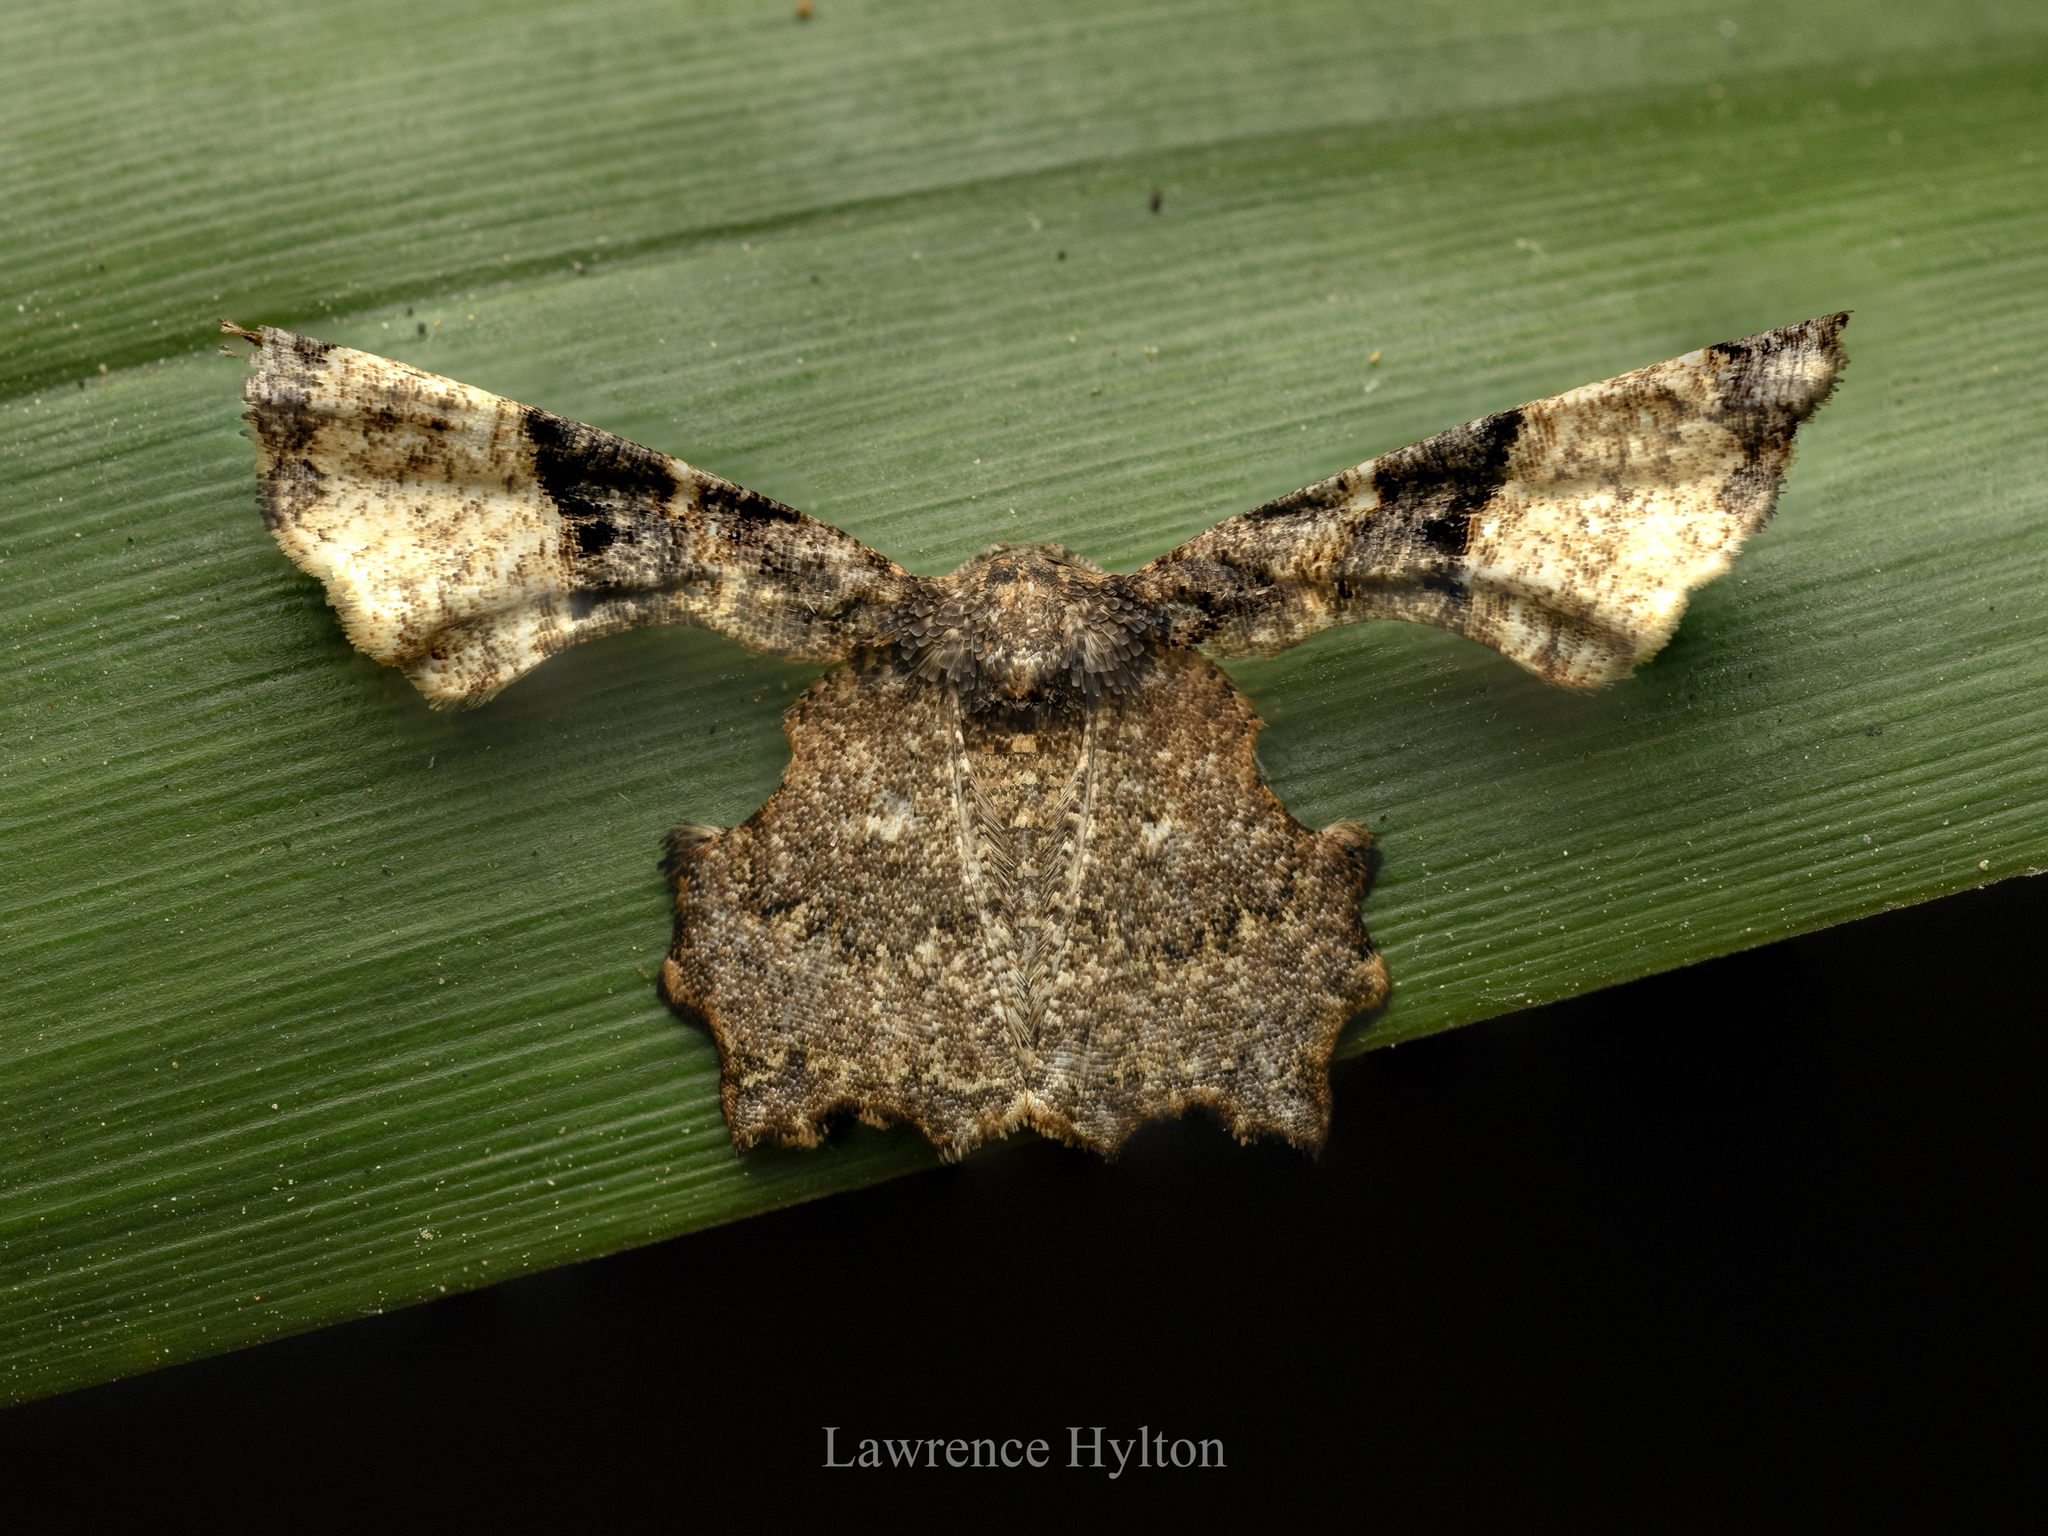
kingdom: Animalia
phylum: Arthropoda
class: Insecta
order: Lepidoptera
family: Uraniidae
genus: Gathynia
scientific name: Gathynia pernigrata
